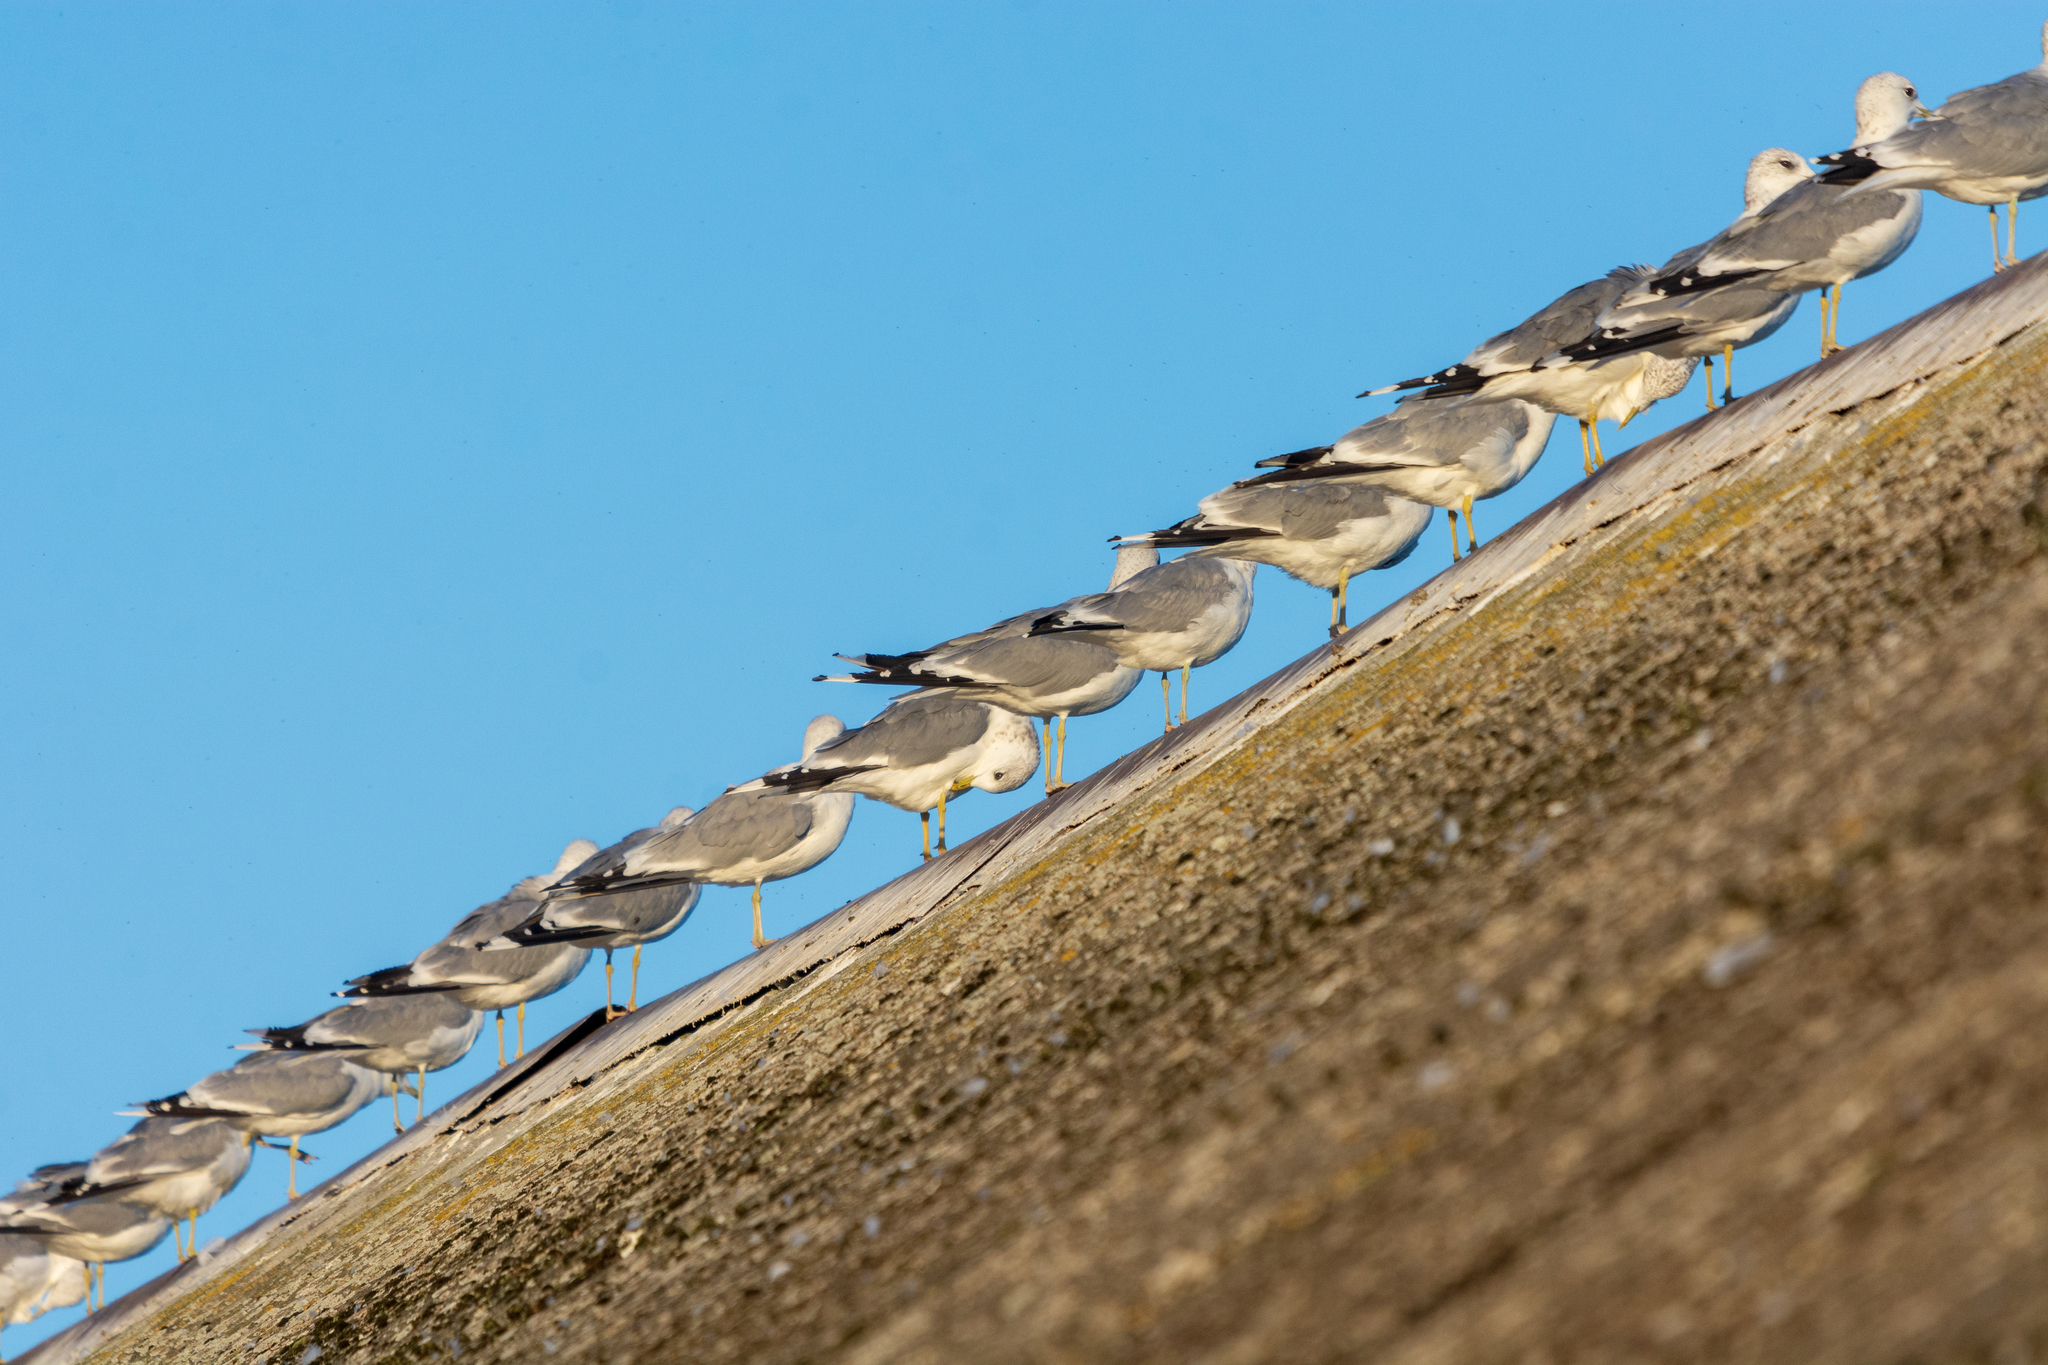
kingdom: Animalia
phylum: Chordata
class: Aves
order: Charadriiformes
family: Laridae
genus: Larus
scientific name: Larus canus
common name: Mew gull
